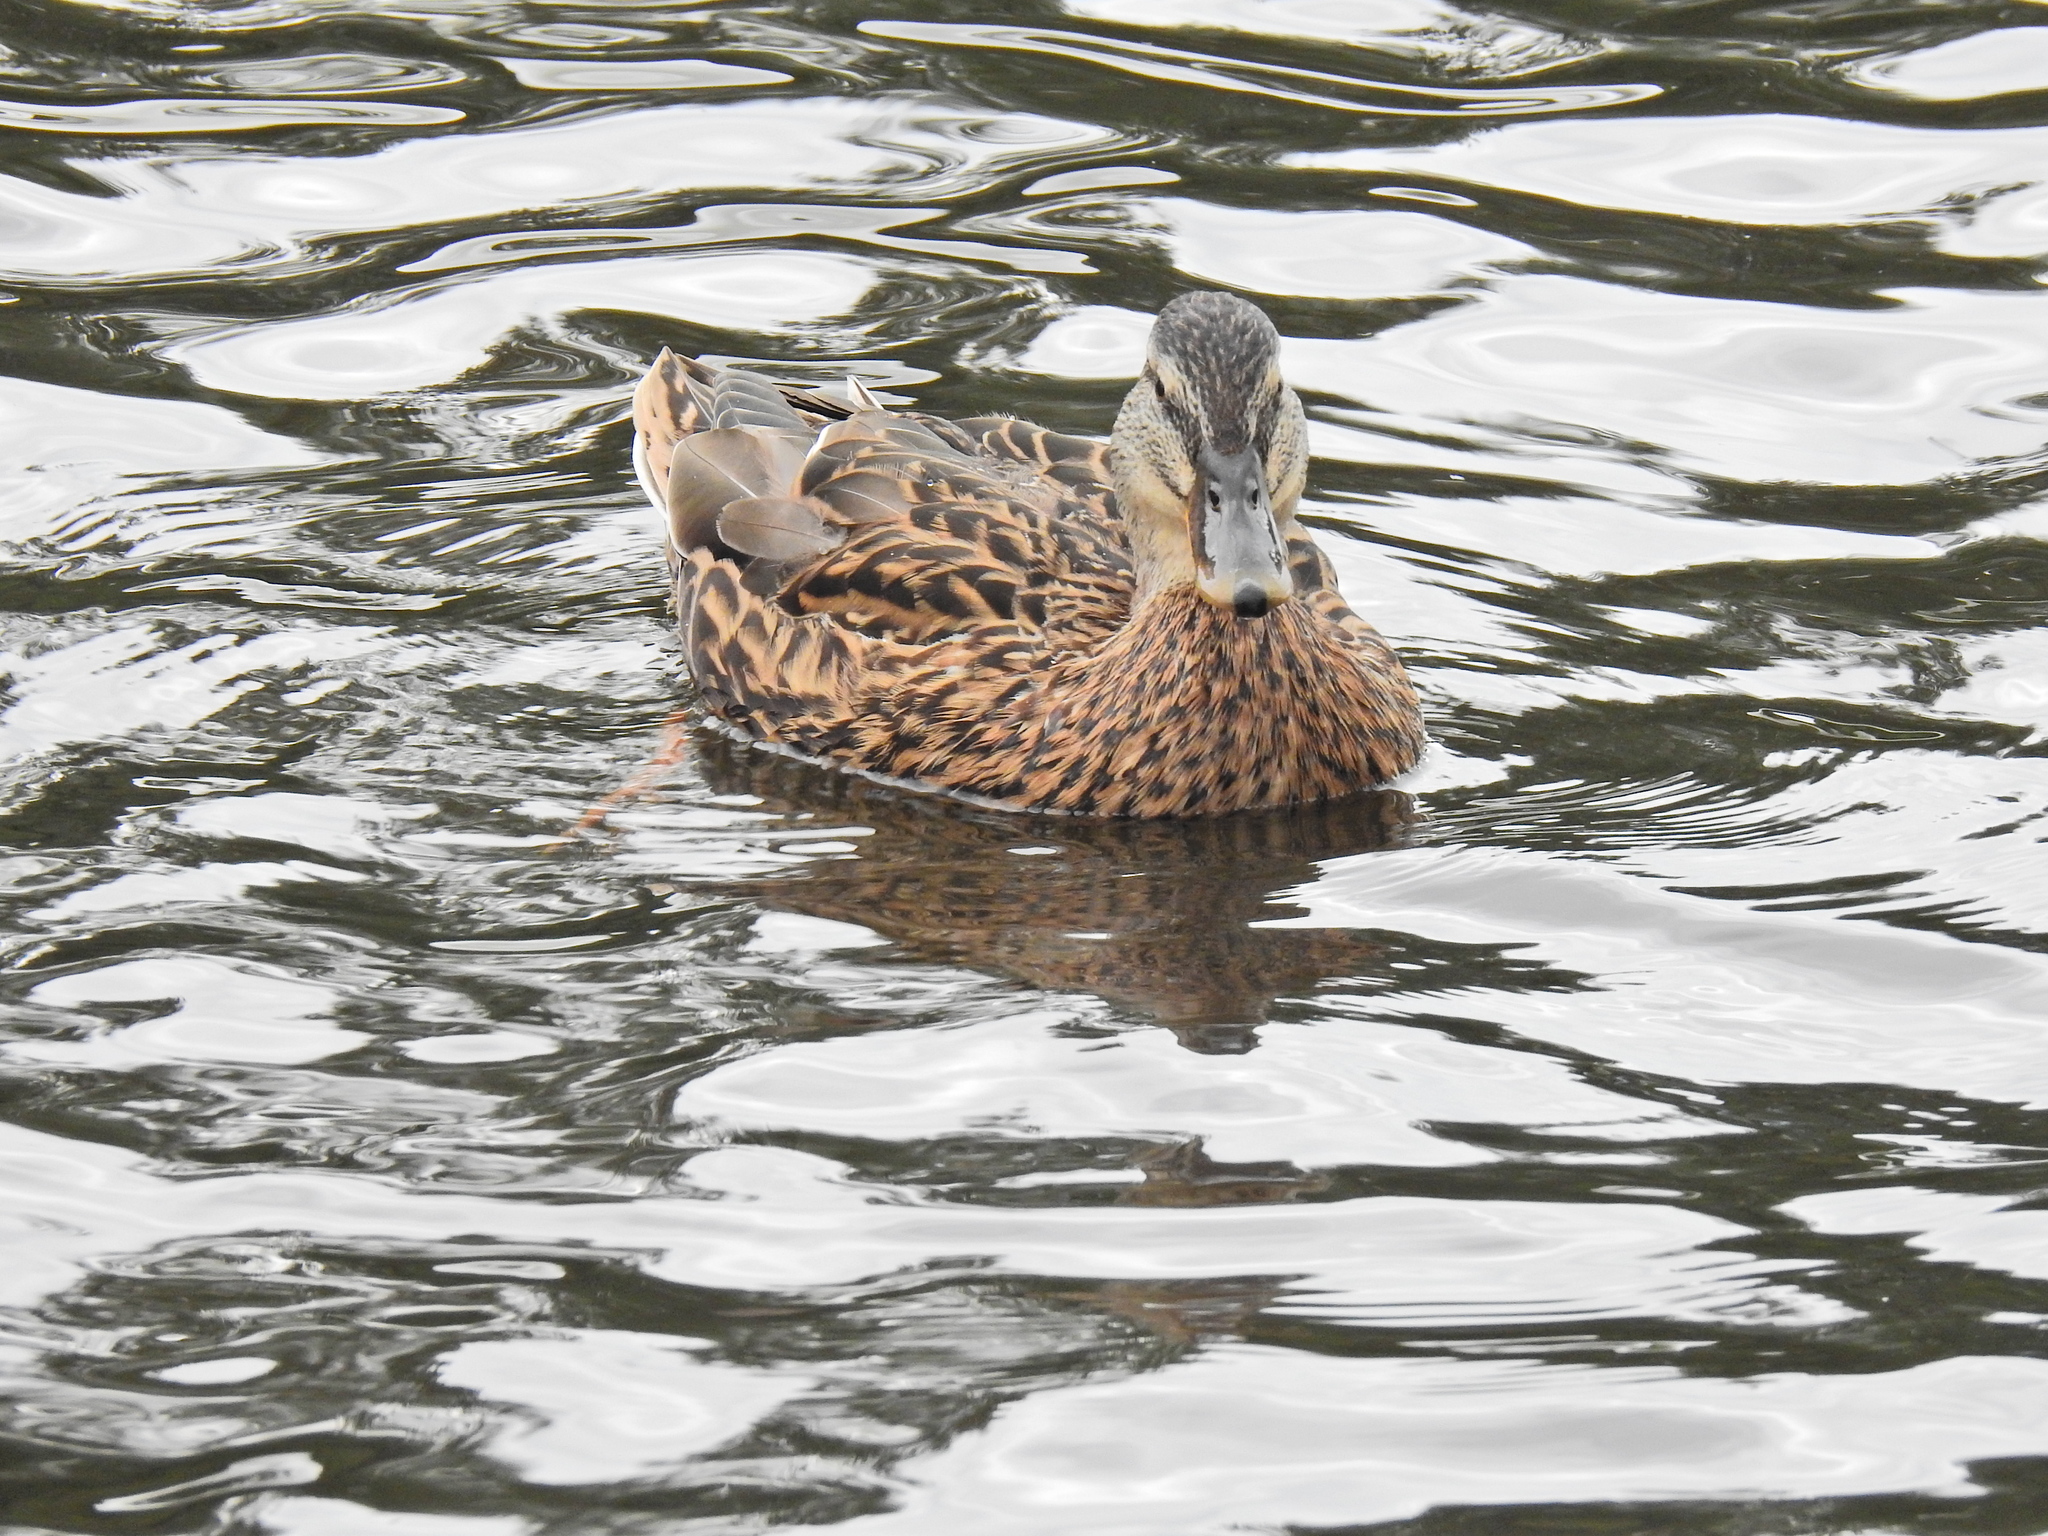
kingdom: Animalia
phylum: Chordata
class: Aves
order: Anseriformes
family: Anatidae
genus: Anas
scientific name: Anas platyrhynchos
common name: Mallard
